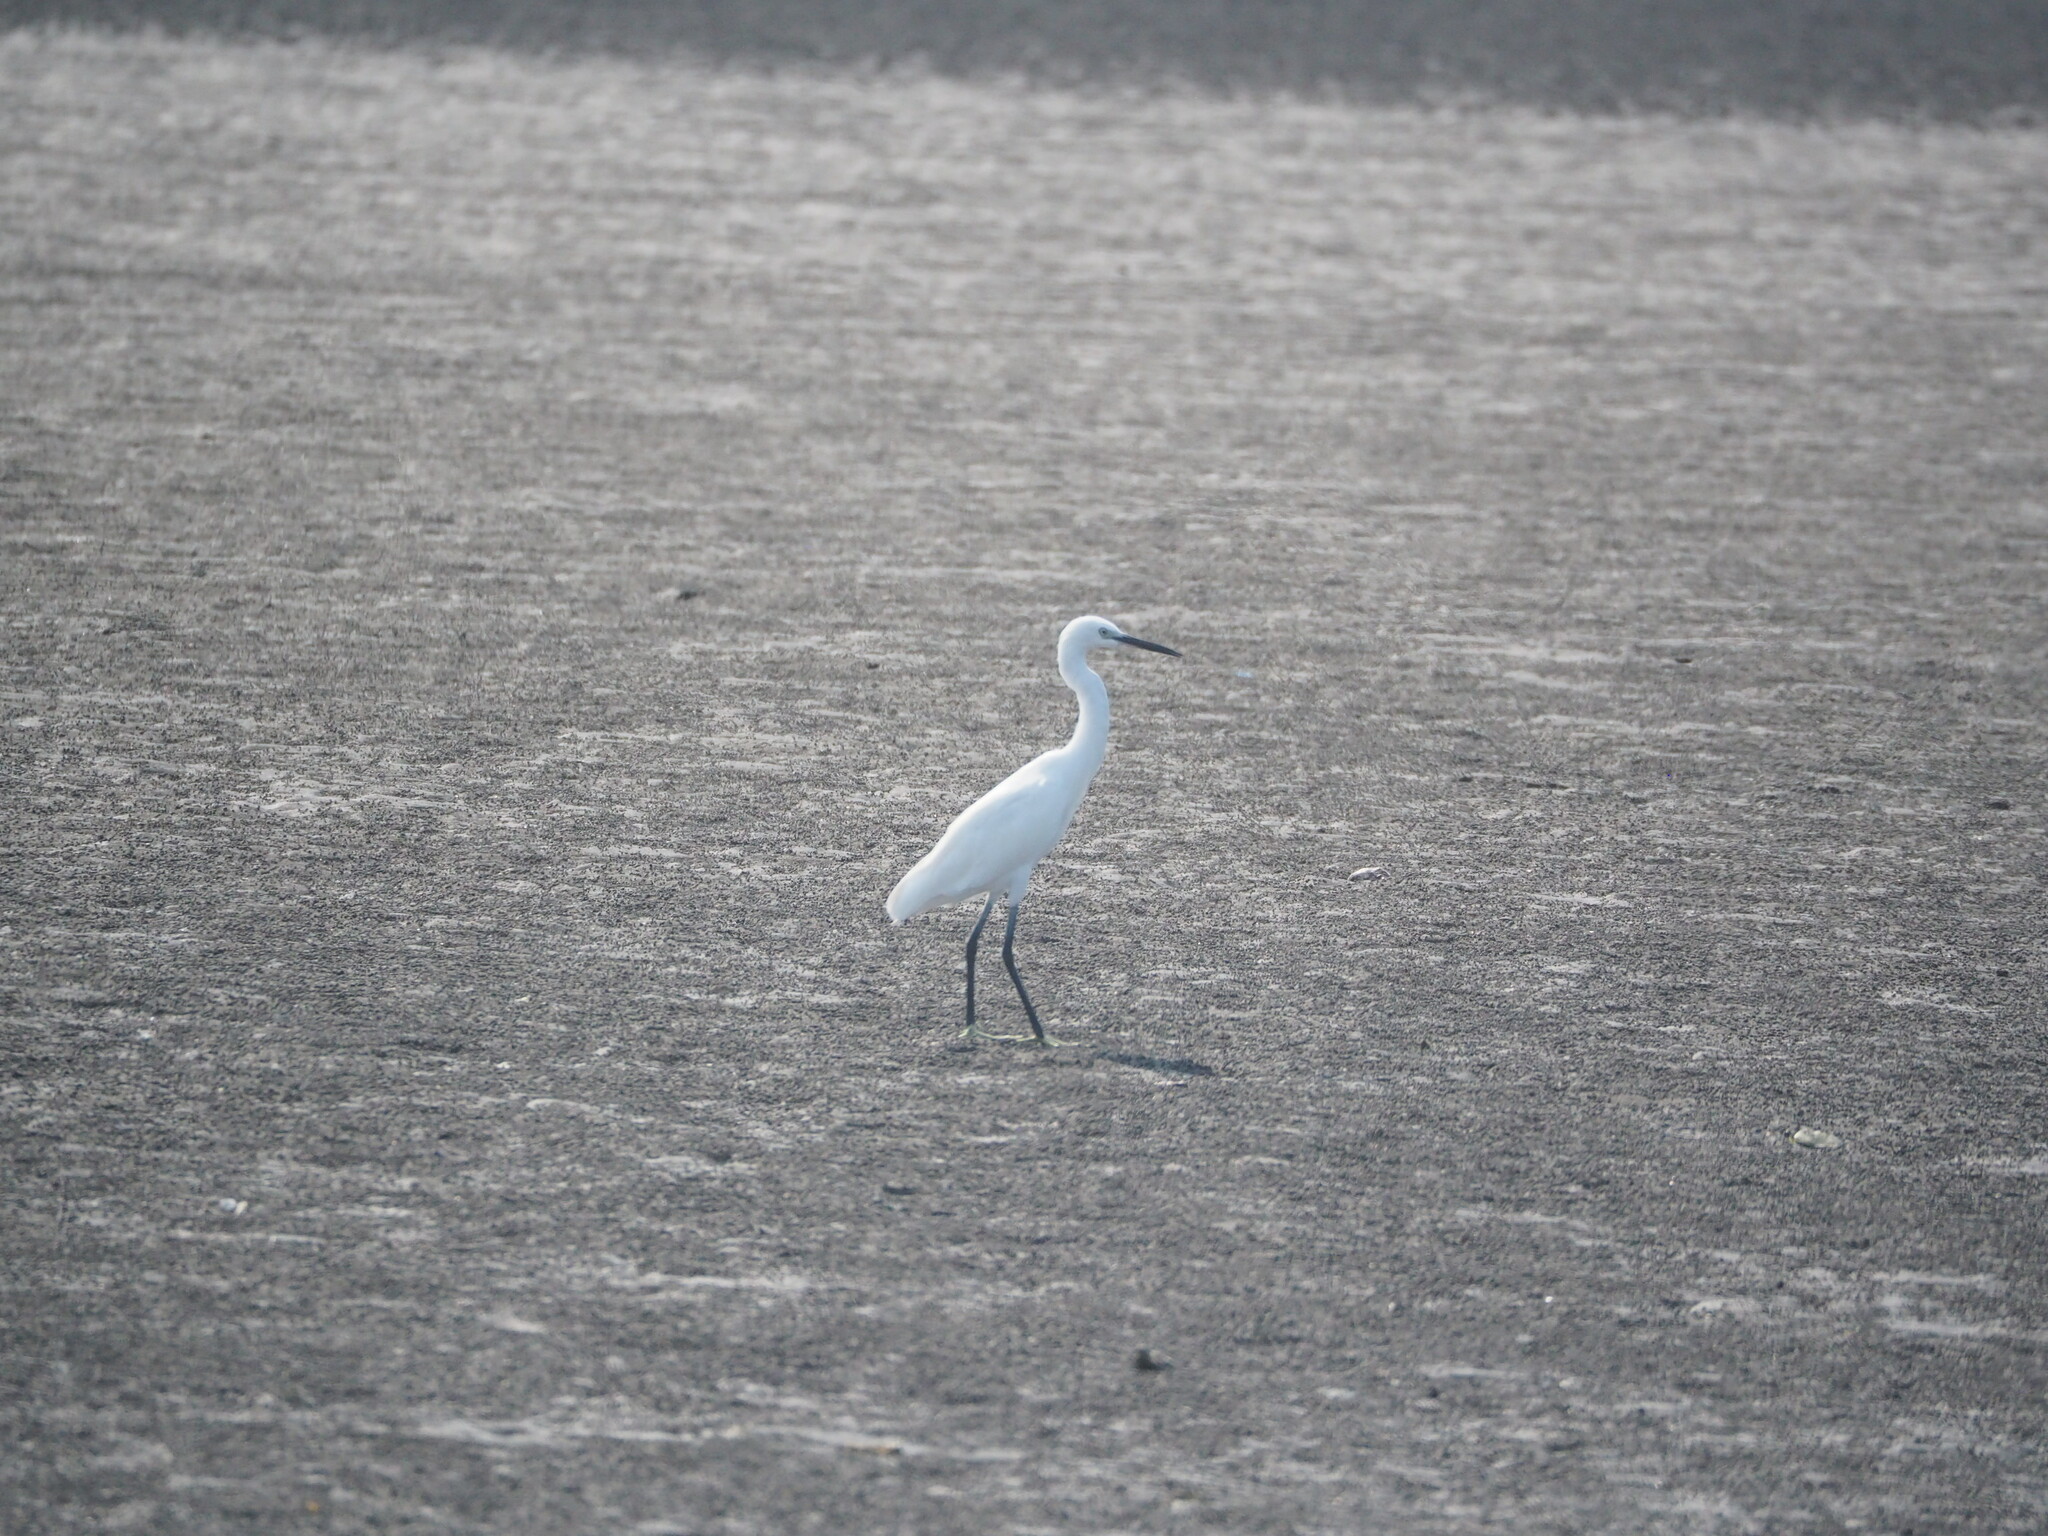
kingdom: Animalia
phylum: Chordata
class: Aves
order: Pelecaniformes
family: Ardeidae
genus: Egretta
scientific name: Egretta garzetta
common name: Little egret
